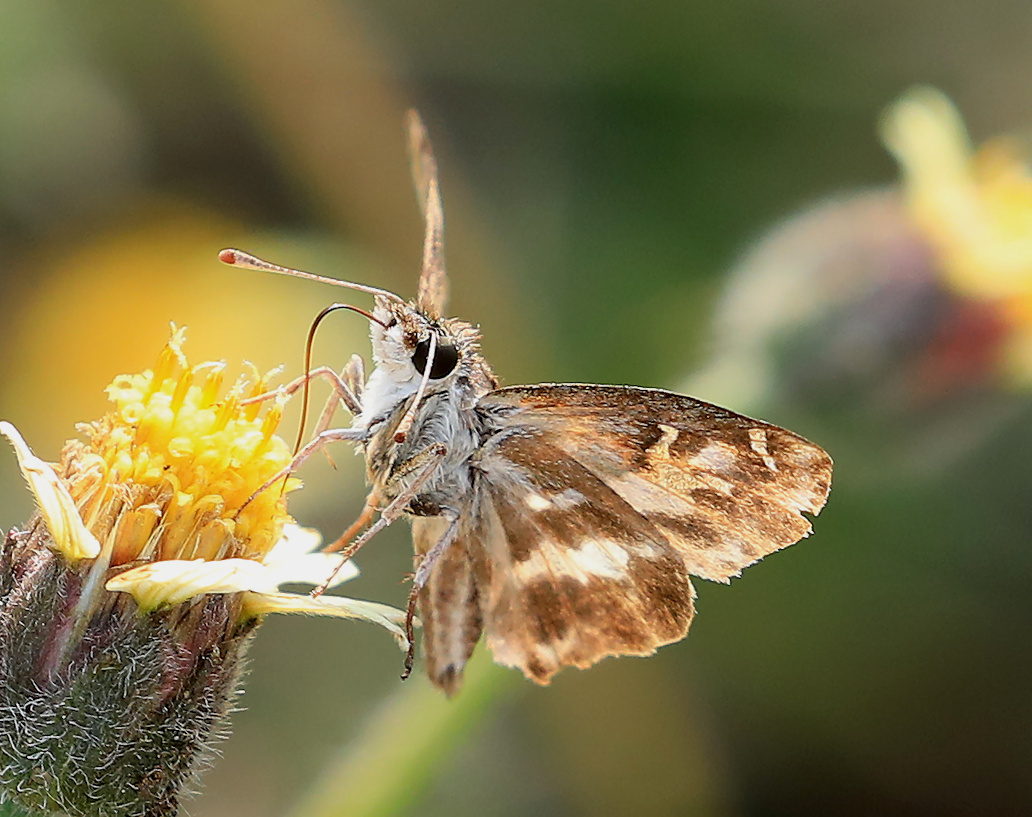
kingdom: Animalia
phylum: Arthropoda
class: Insecta
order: Lepidoptera
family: Hesperiidae
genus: Gomalia
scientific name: Gomalia elma
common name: Green-marbled skipper
